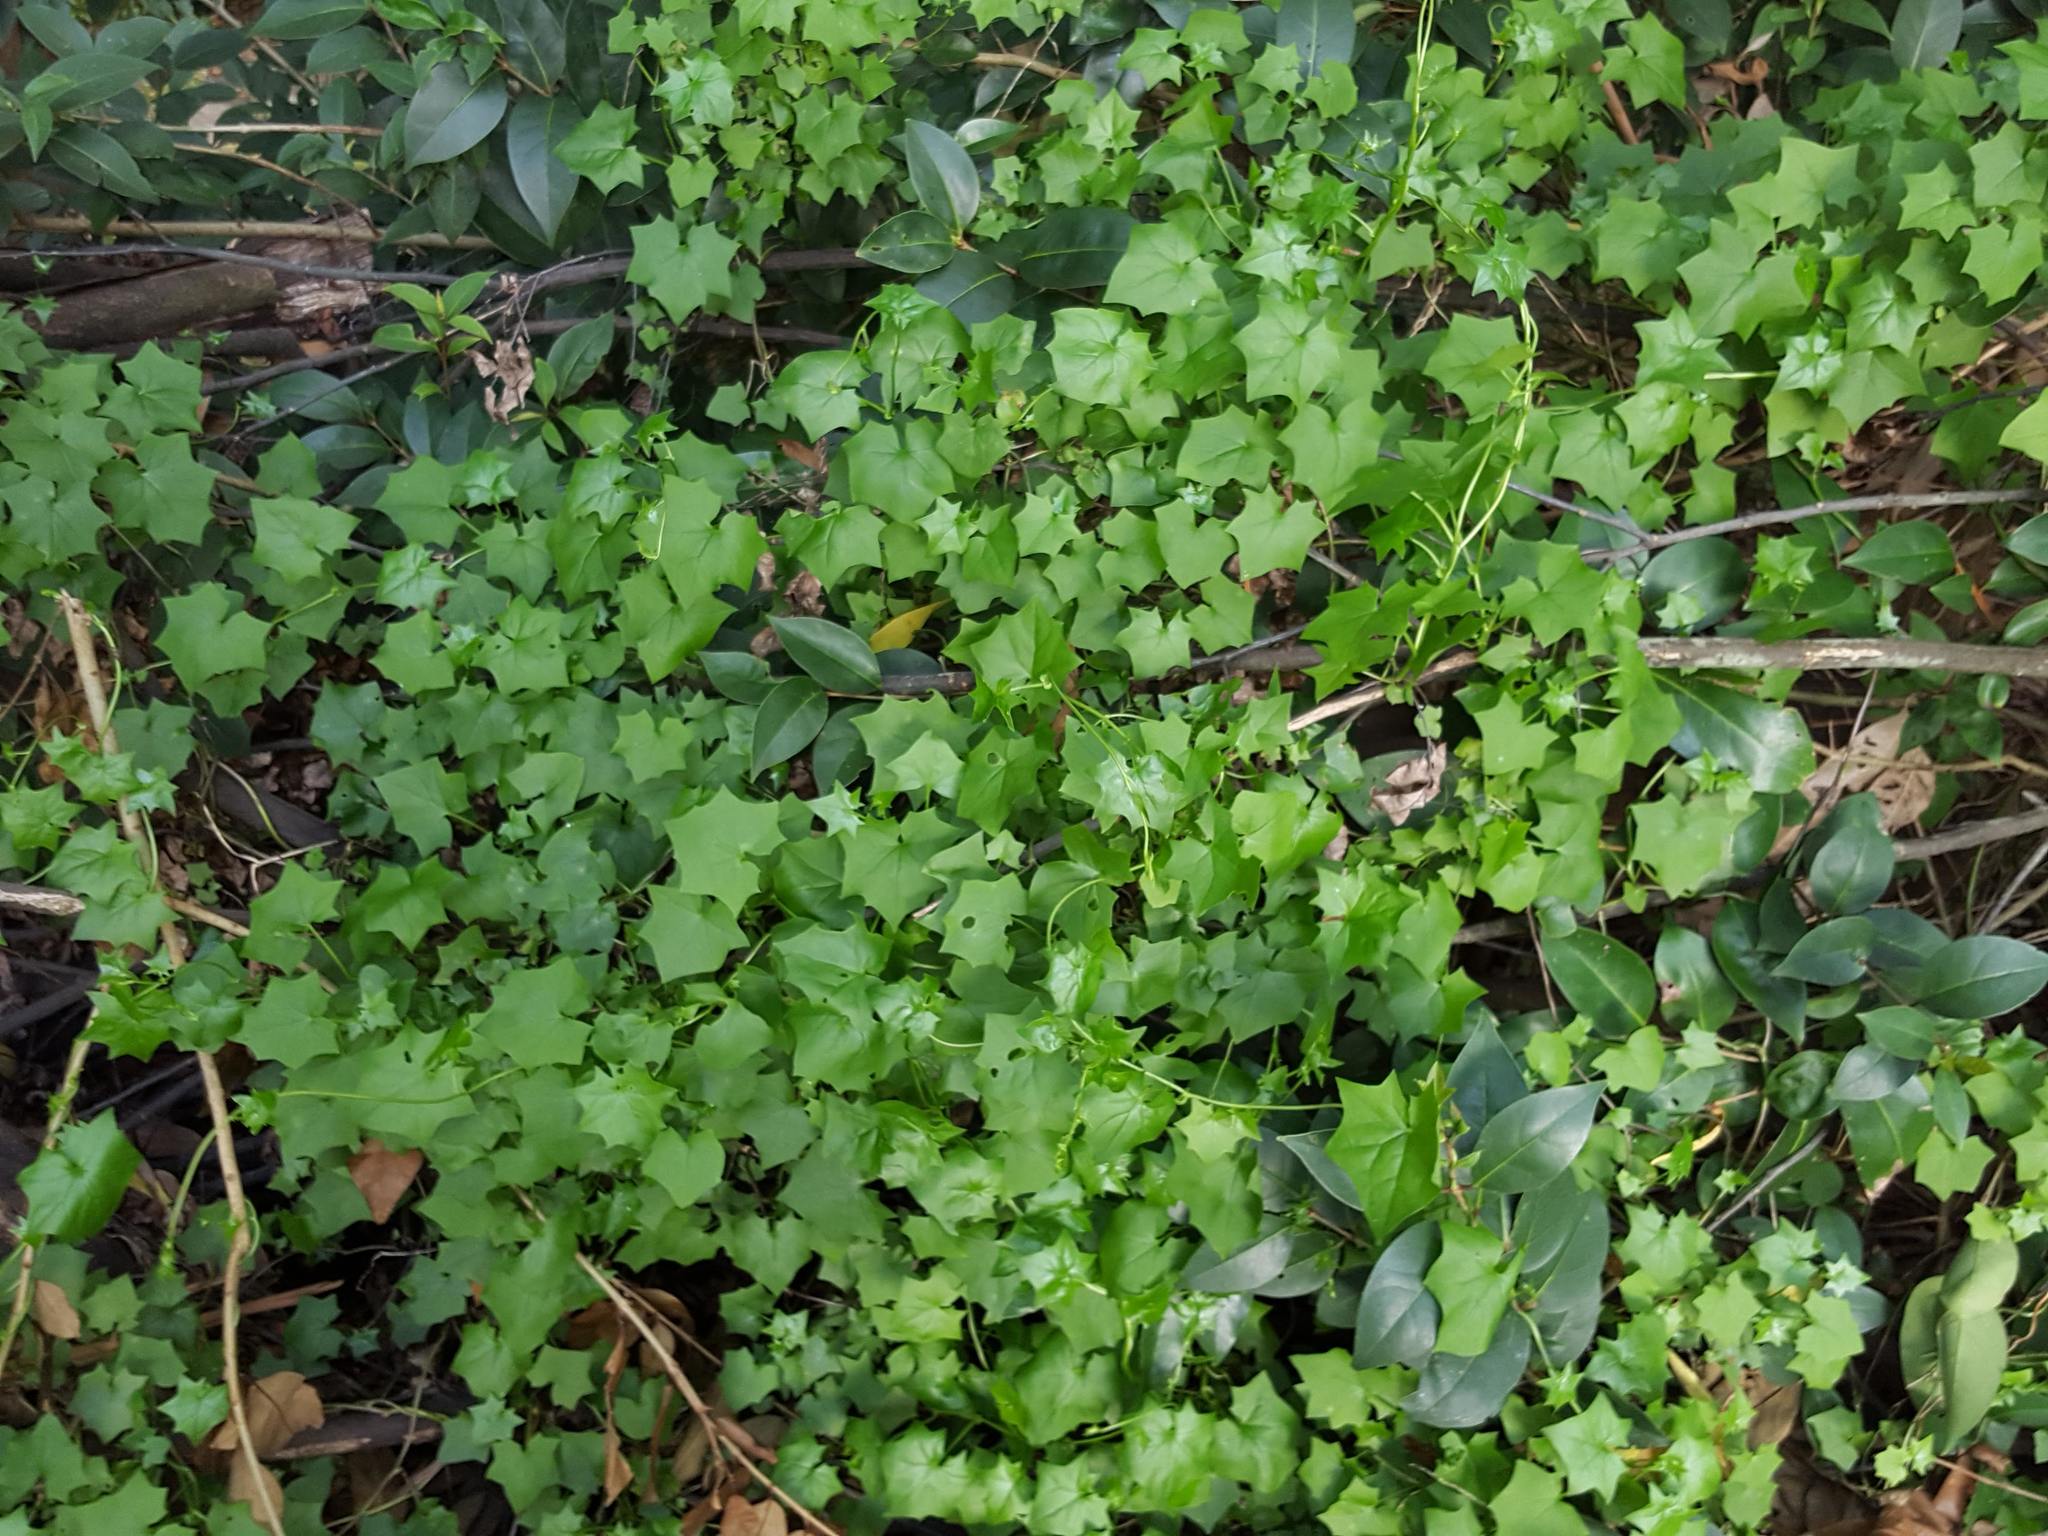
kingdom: Plantae
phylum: Tracheophyta
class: Magnoliopsida
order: Asterales
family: Asteraceae
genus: Delairea
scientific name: Delairea odorata
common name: Cape-ivy
